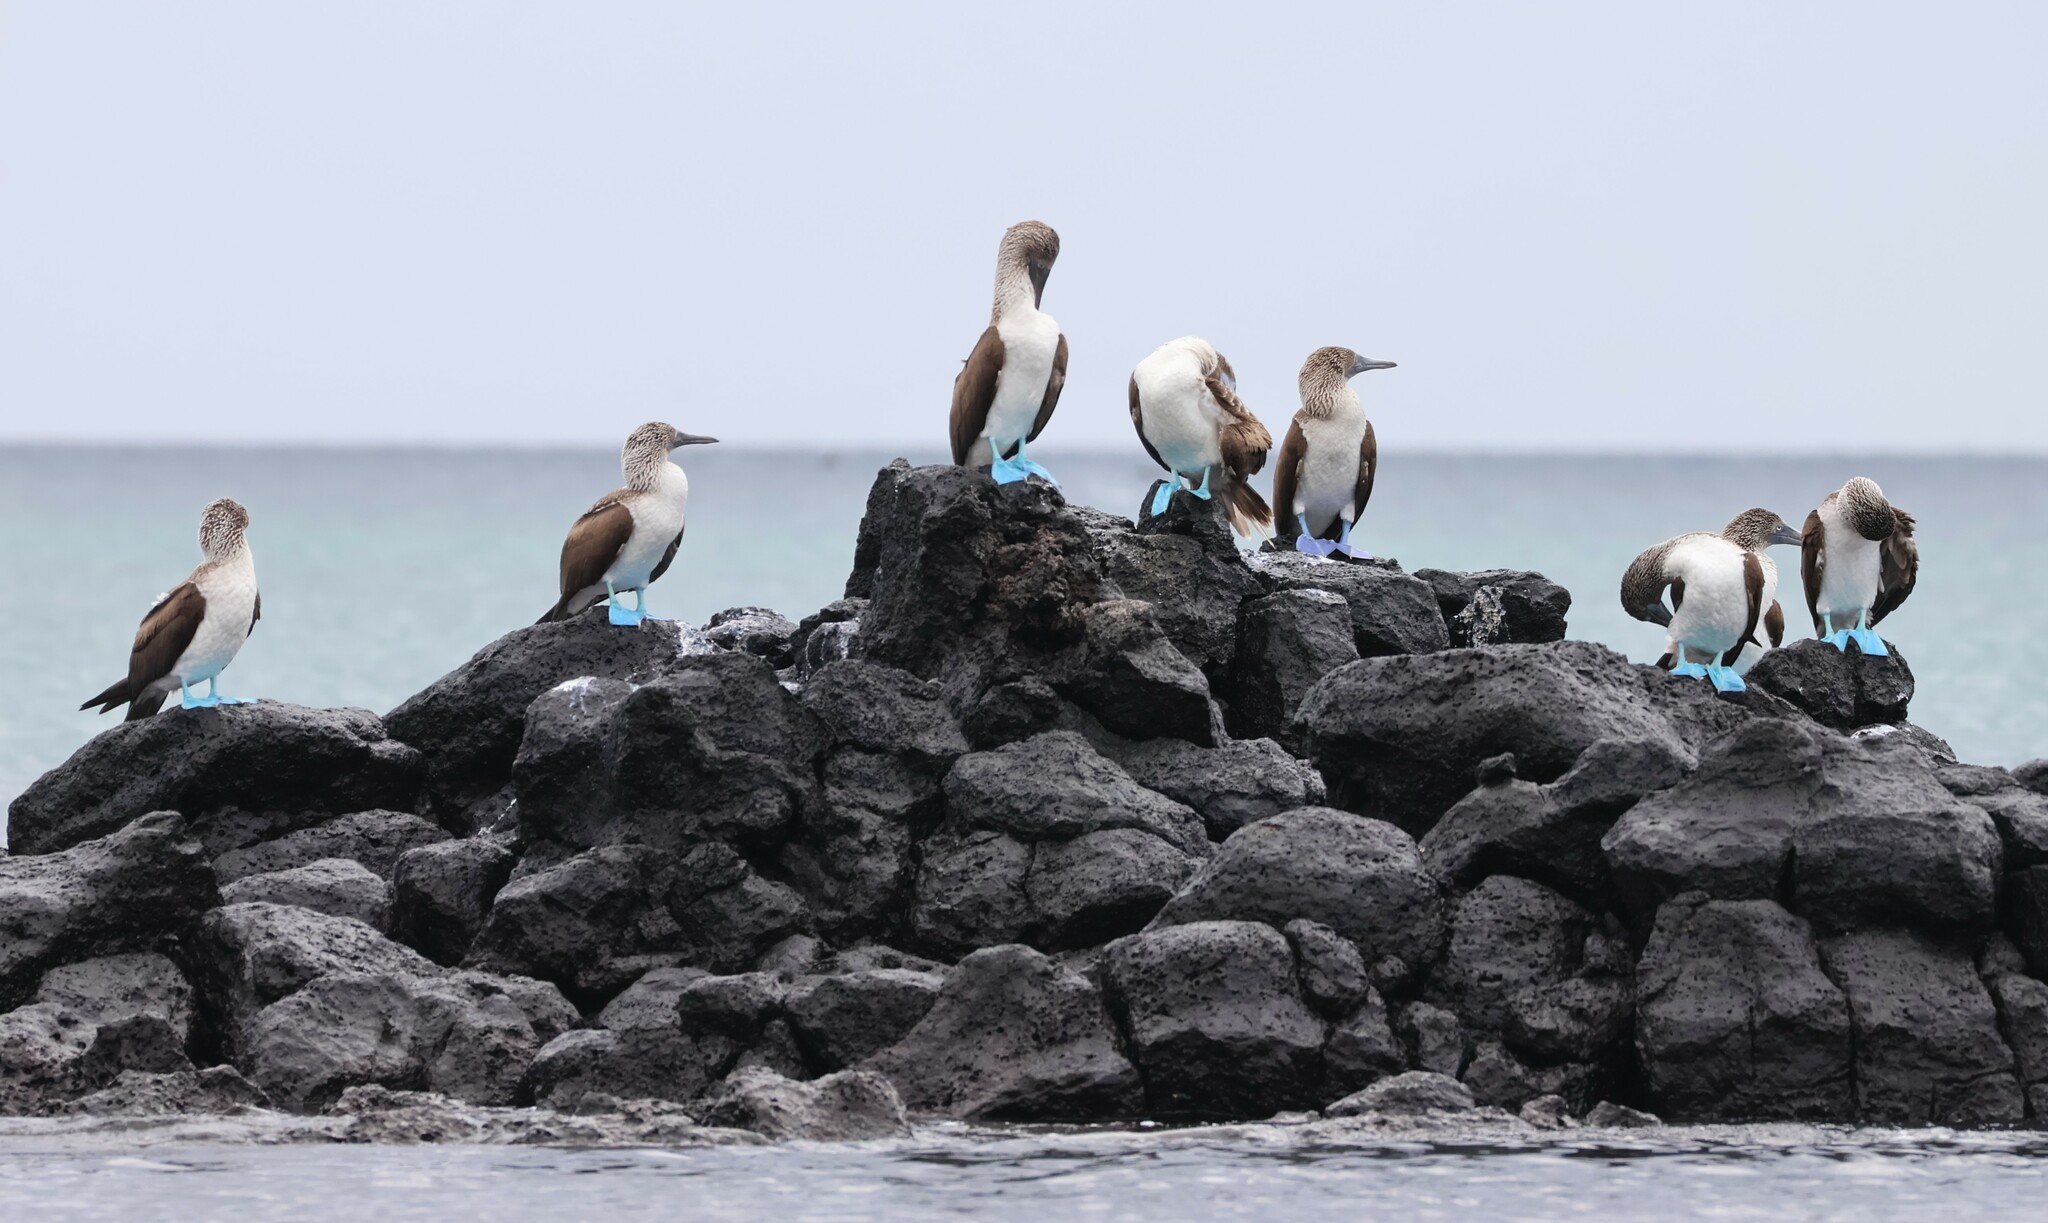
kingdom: Animalia
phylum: Chordata
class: Aves
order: Suliformes
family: Sulidae
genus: Sula
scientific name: Sula nebouxii
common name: Blue-footed booby
